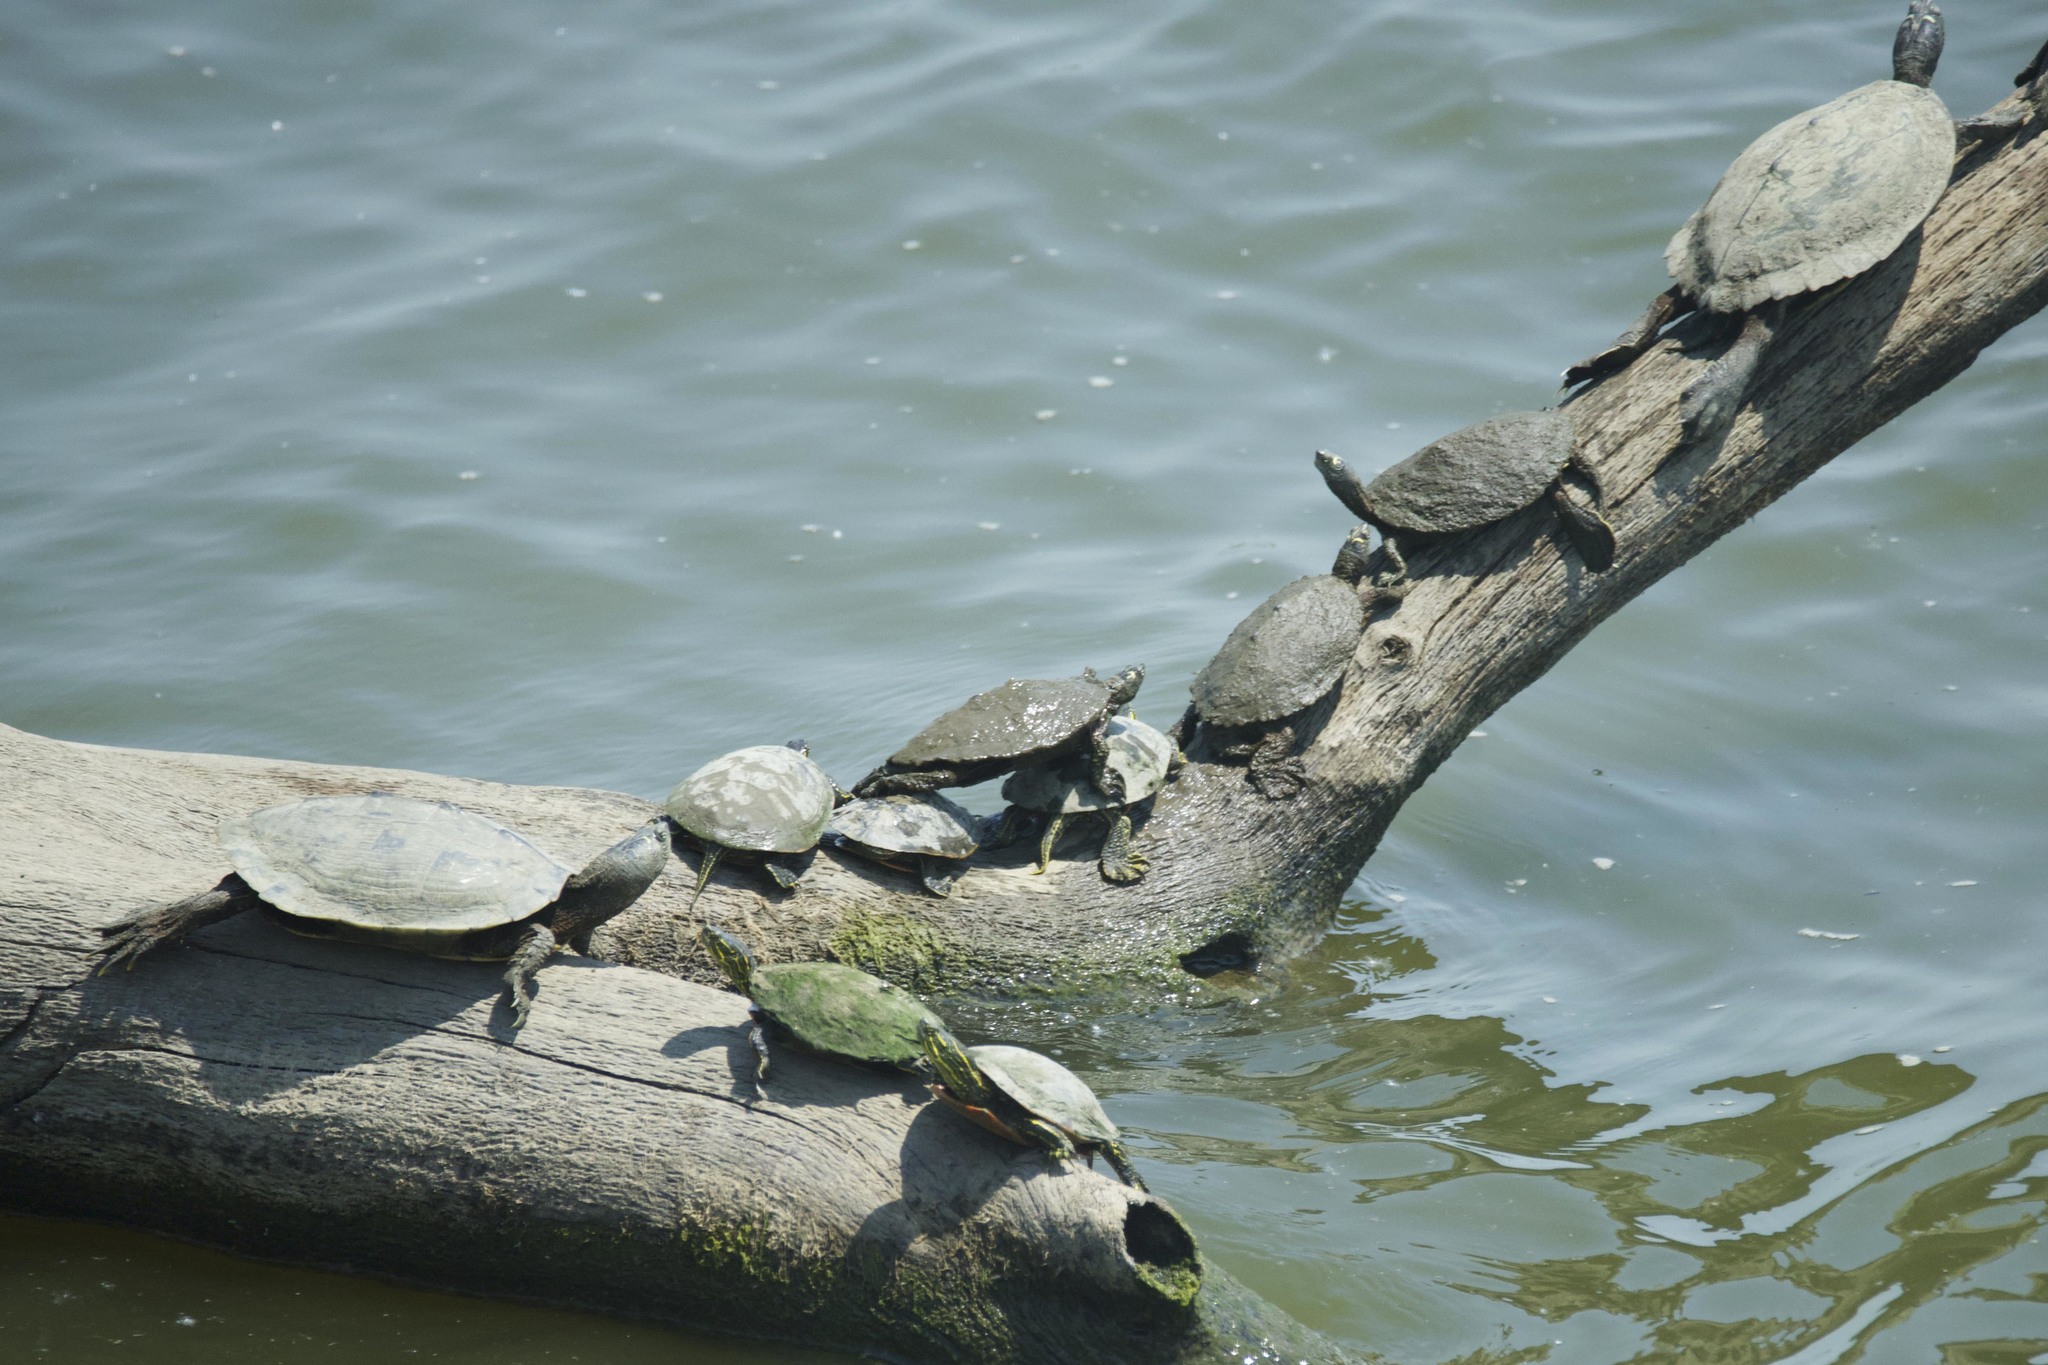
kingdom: Animalia
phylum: Chordata
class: Testudines
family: Emydidae
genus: Graptemys
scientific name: Graptemys pseudogeographica
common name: False map turtle
